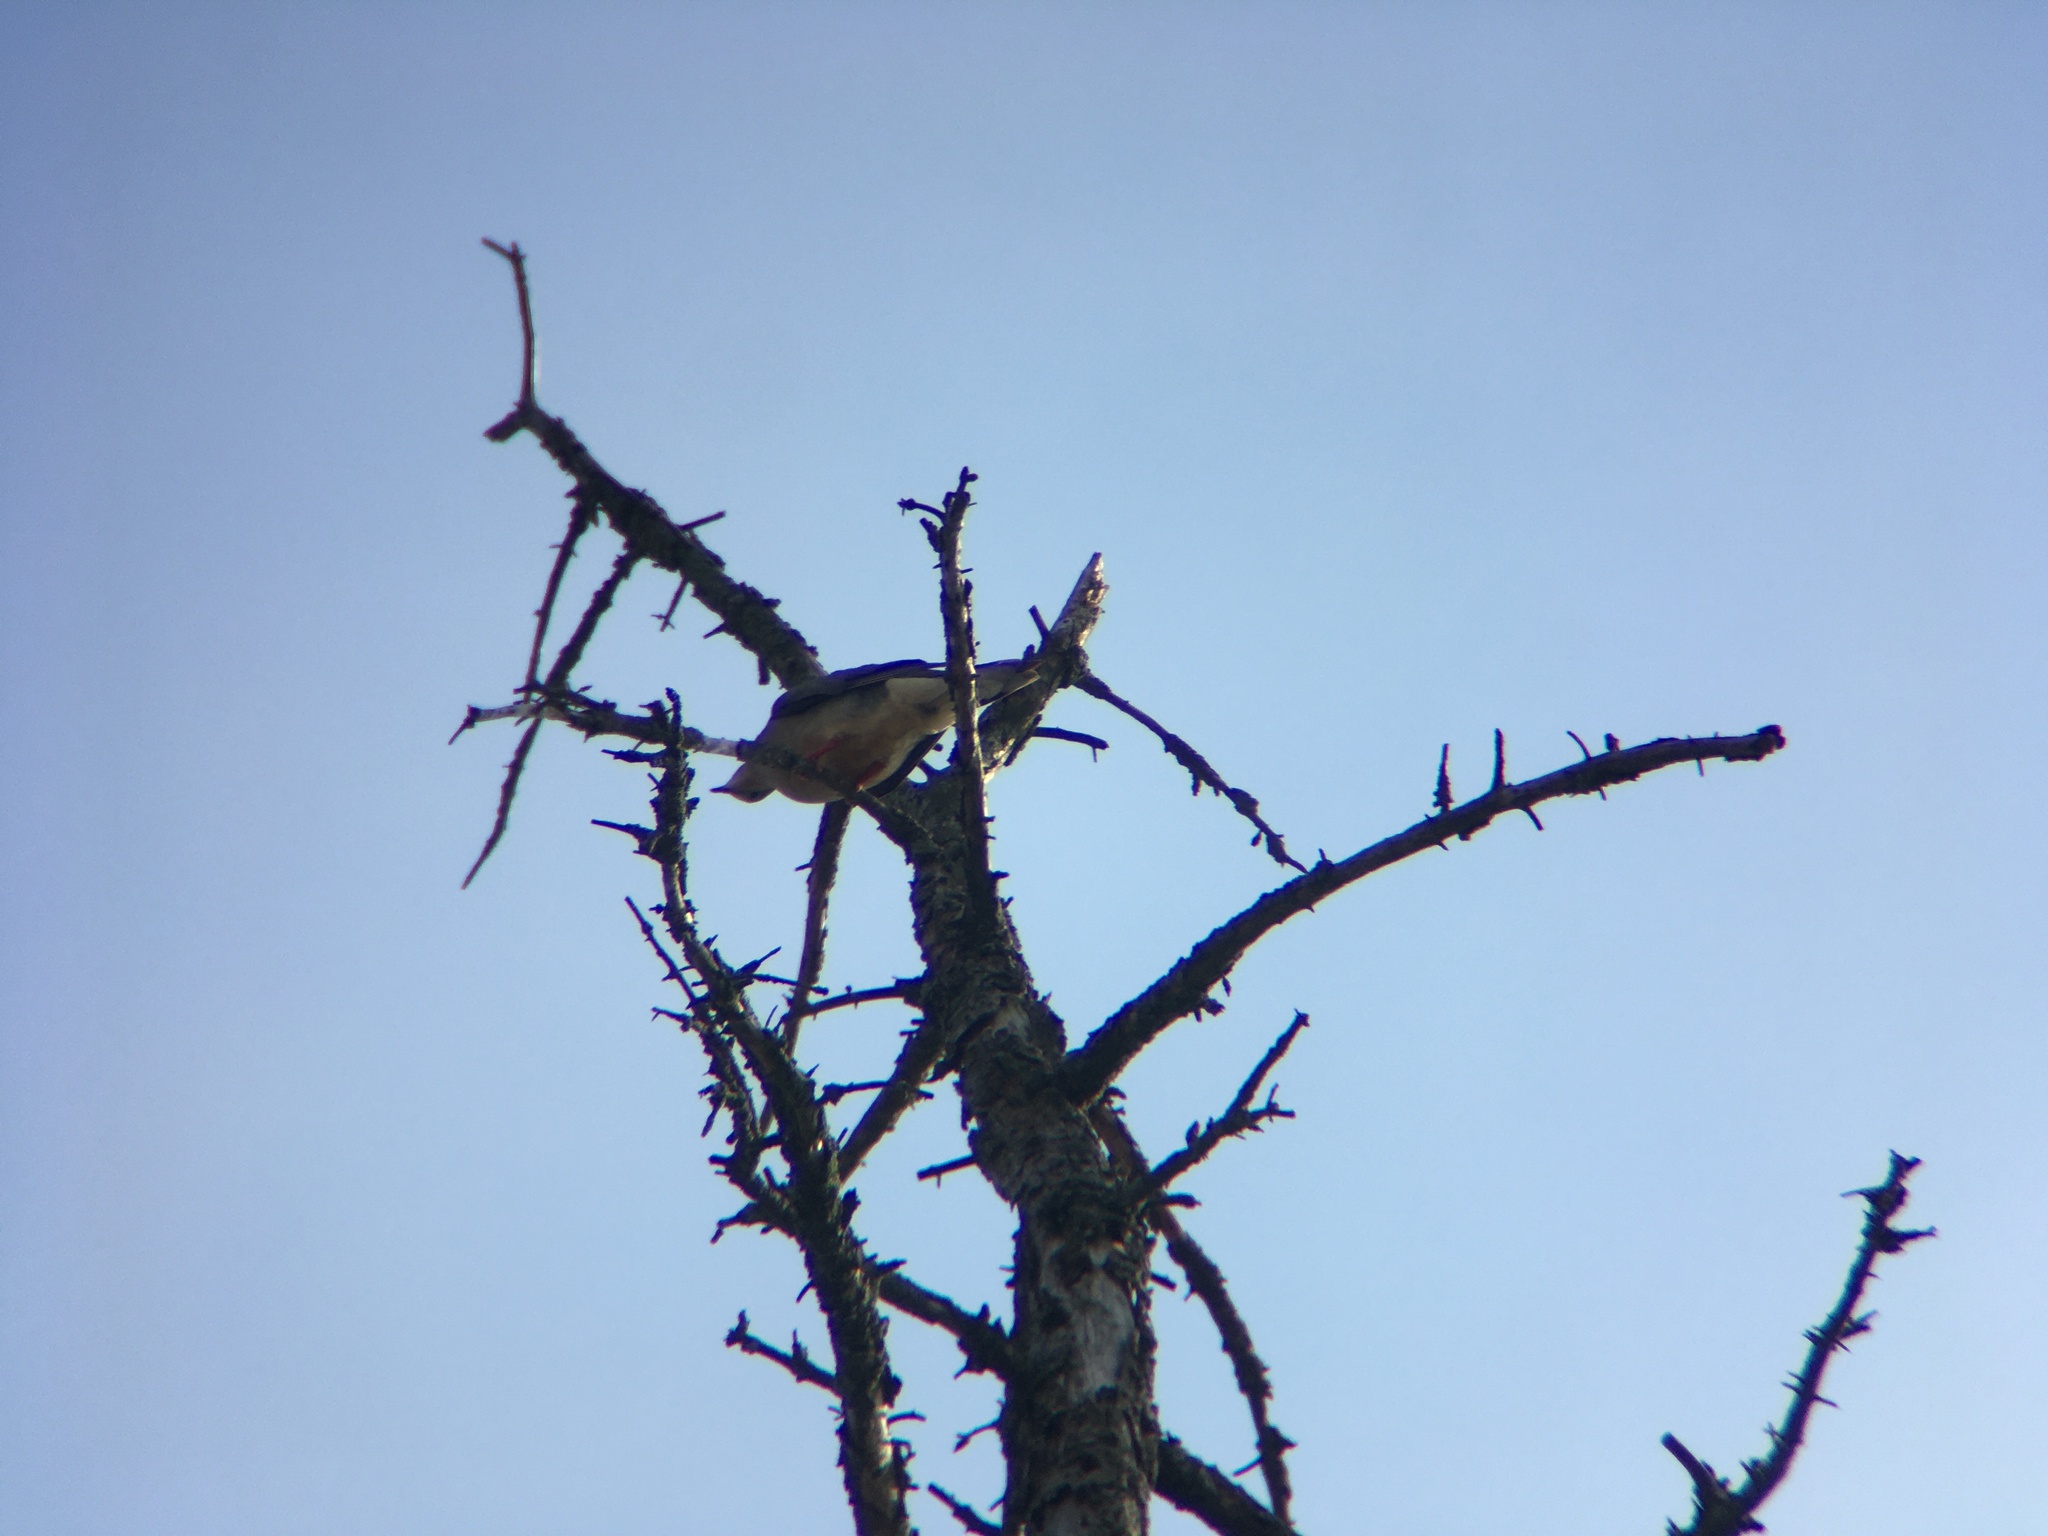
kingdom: Animalia
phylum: Chordata
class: Aves
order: Columbiformes
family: Columbidae
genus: Zenaida
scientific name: Zenaida macroura
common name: Mourning dove
